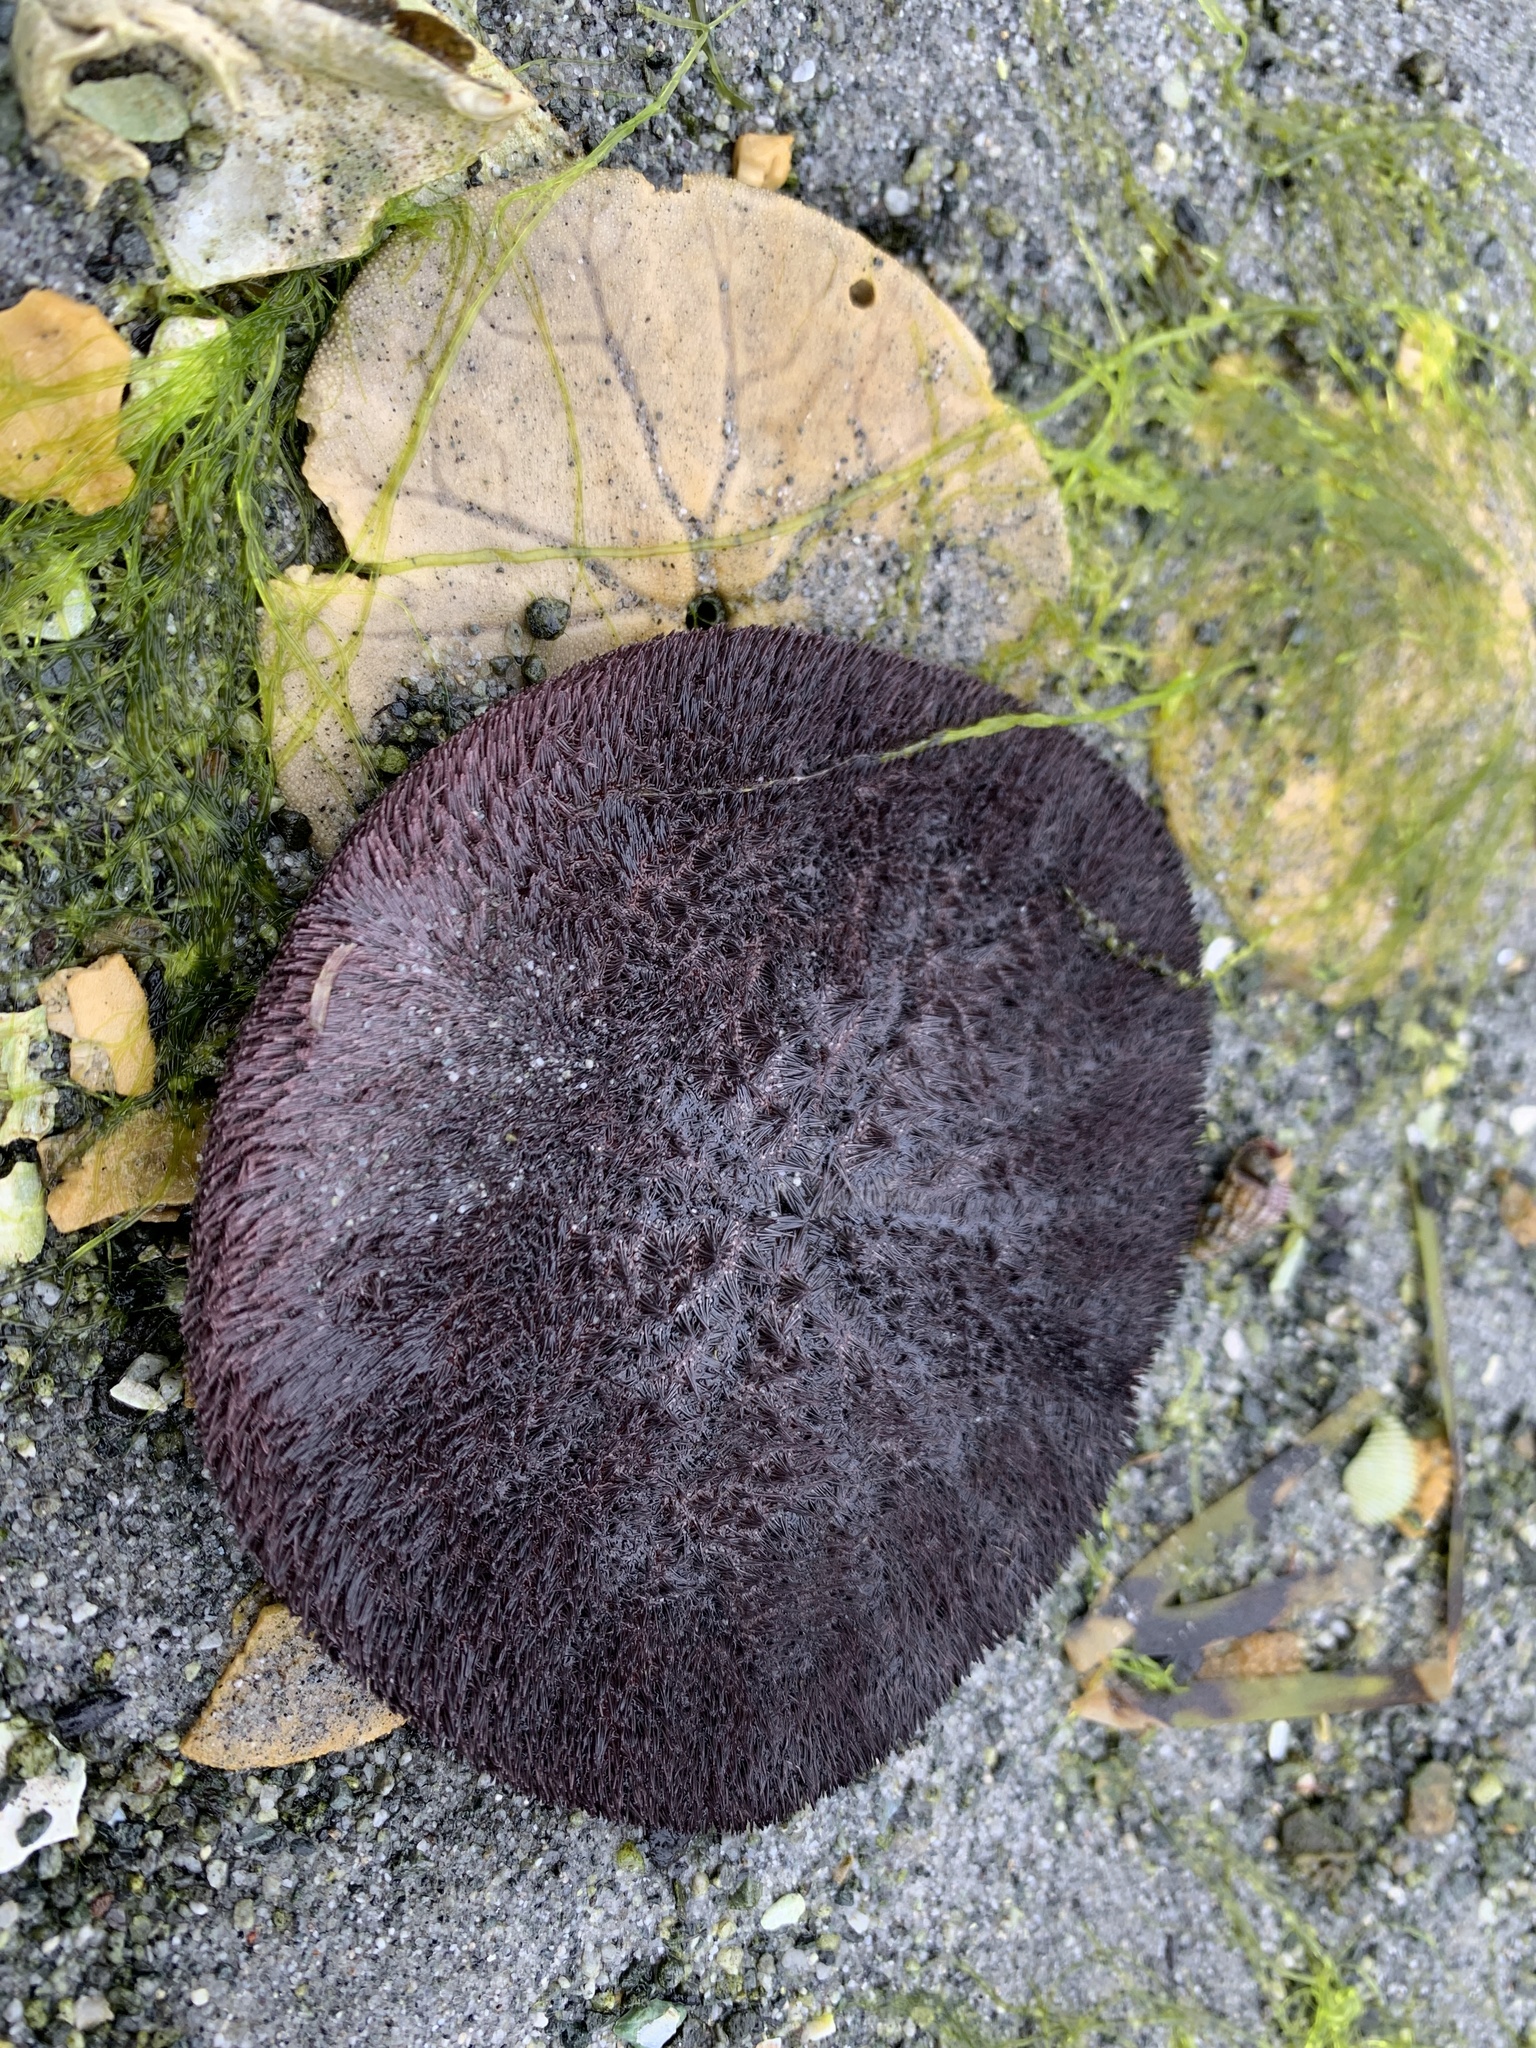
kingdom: Animalia
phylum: Echinodermata
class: Echinoidea
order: Echinolampadacea
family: Dendrasteridae
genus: Dendraster
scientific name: Dendraster excentricus
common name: Eccentric sand dollar sea urchin
